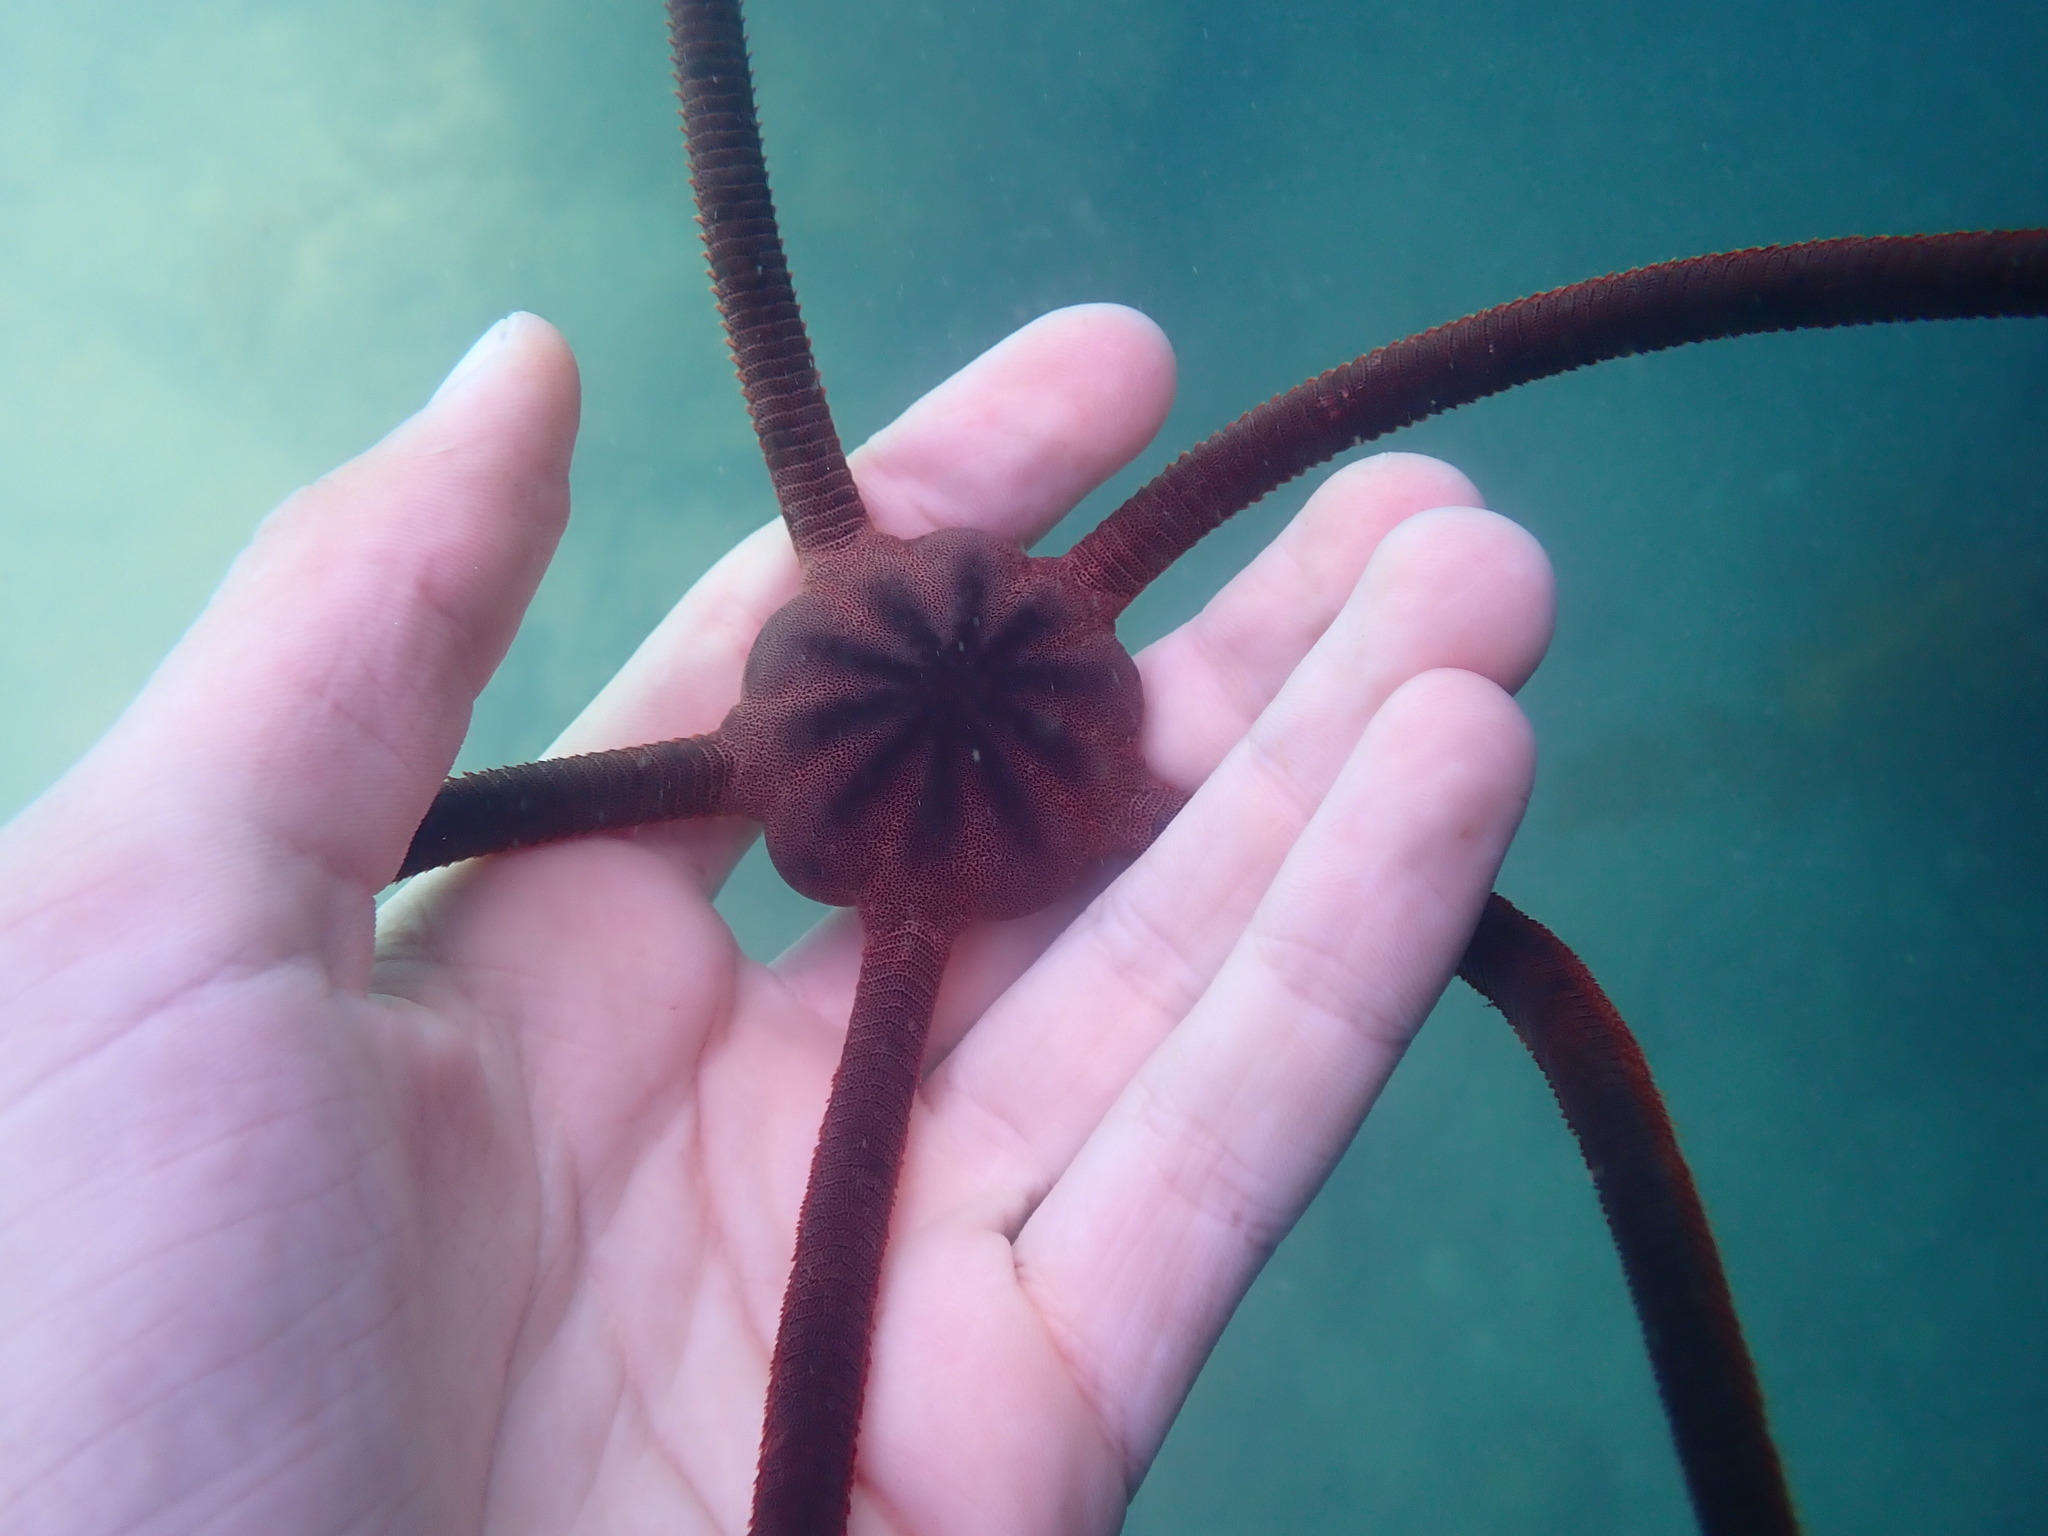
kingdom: Animalia
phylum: Echinodermata
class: Ophiuroidea
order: Ophiacanthida
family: Ophiodermatidae
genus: Ophiopsammus
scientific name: Ophiopsammus maculata
